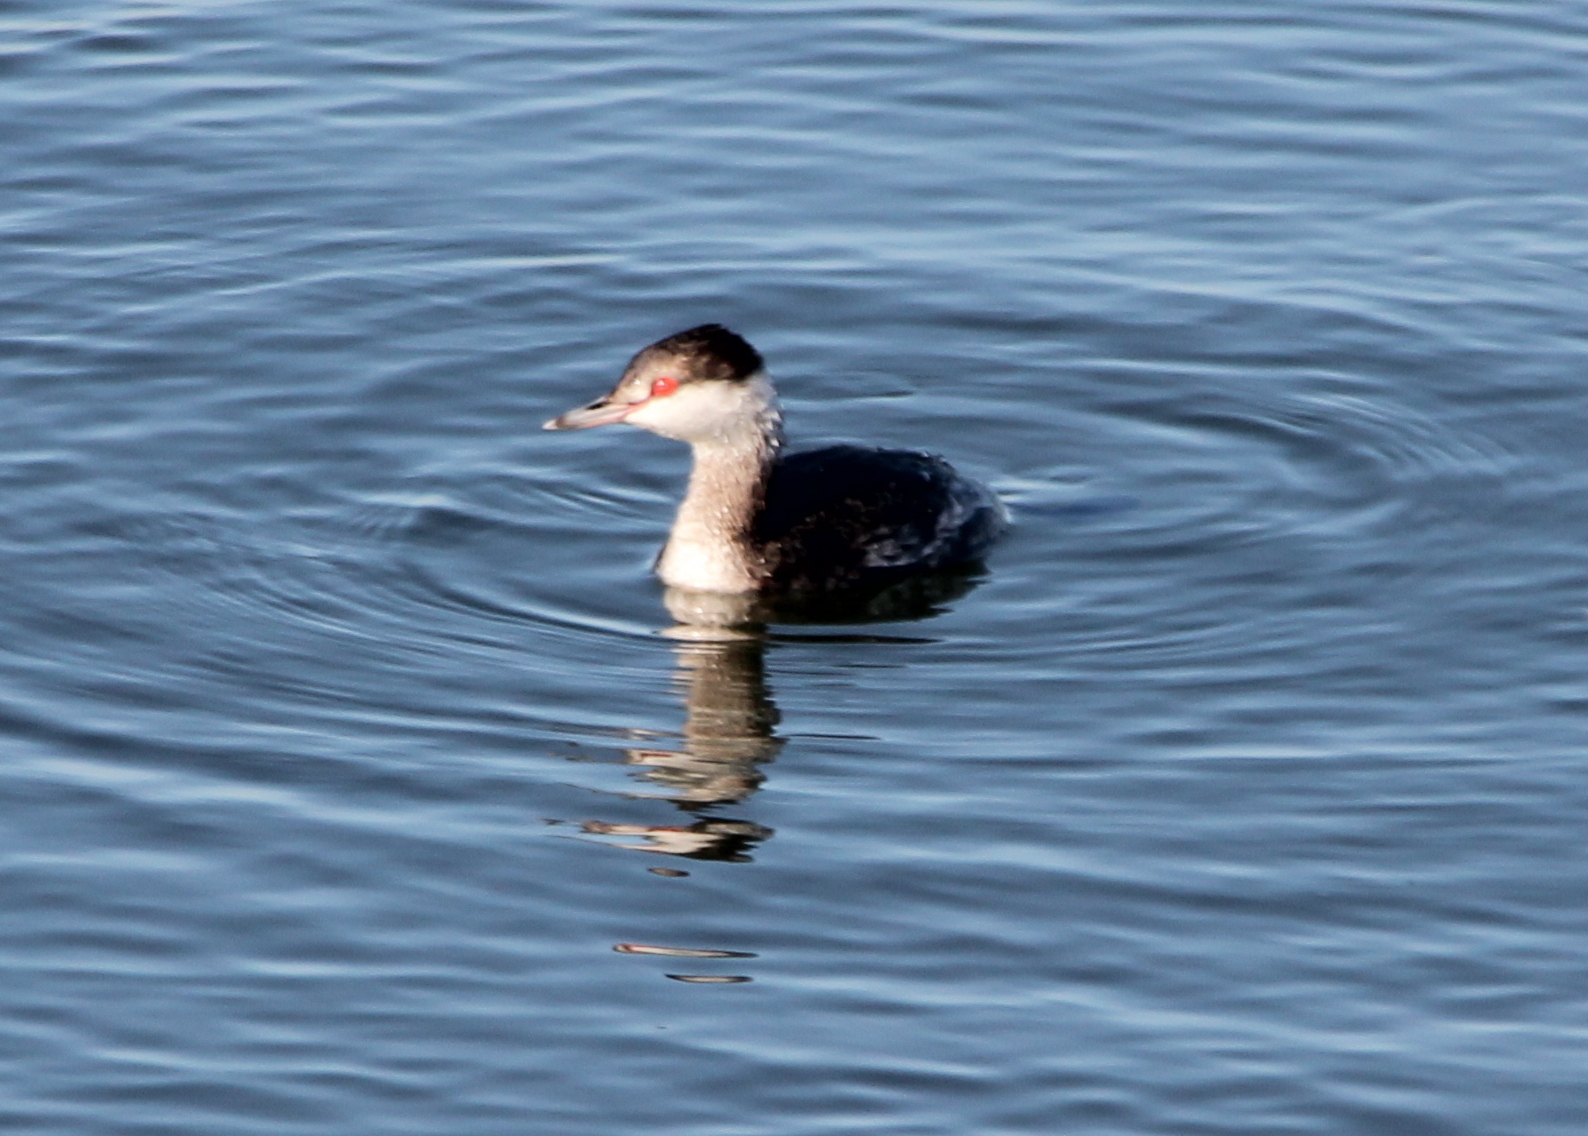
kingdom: Animalia
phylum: Chordata
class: Aves
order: Podicipediformes
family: Podicipedidae
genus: Podiceps
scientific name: Podiceps auritus
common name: Horned grebe
